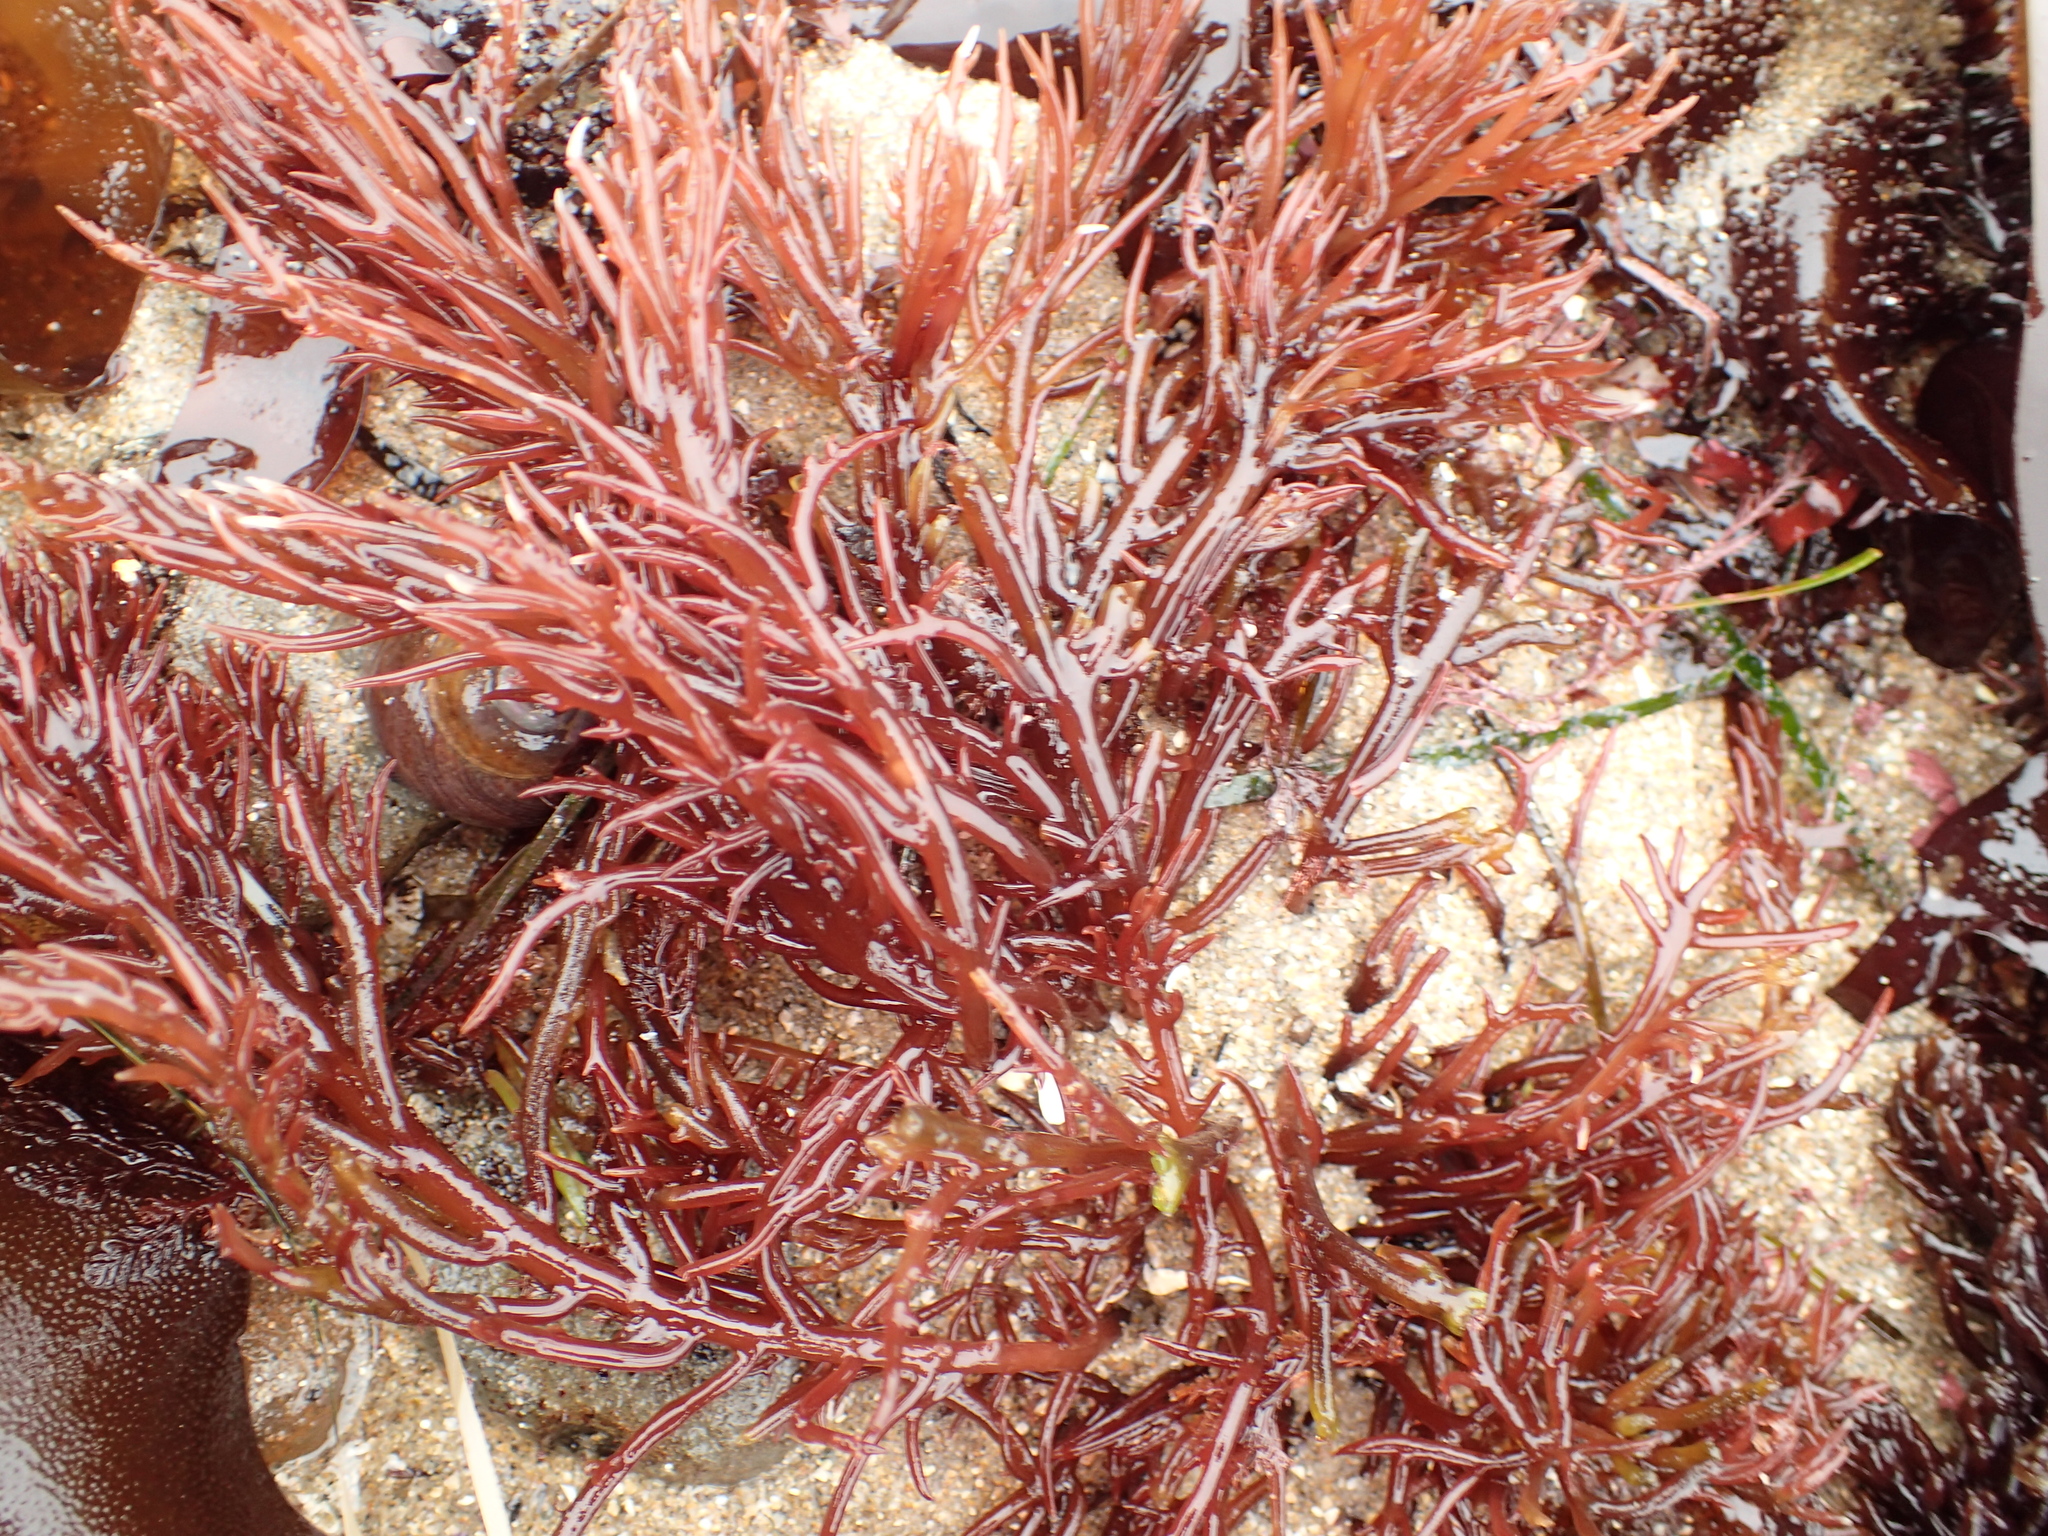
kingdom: Plantae
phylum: Rhodophyta
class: Florideophyceae
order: Gigartinales
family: Solieriaceae
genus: Sarcodiotheca
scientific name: Sarcodiotheca gaudichaudii
